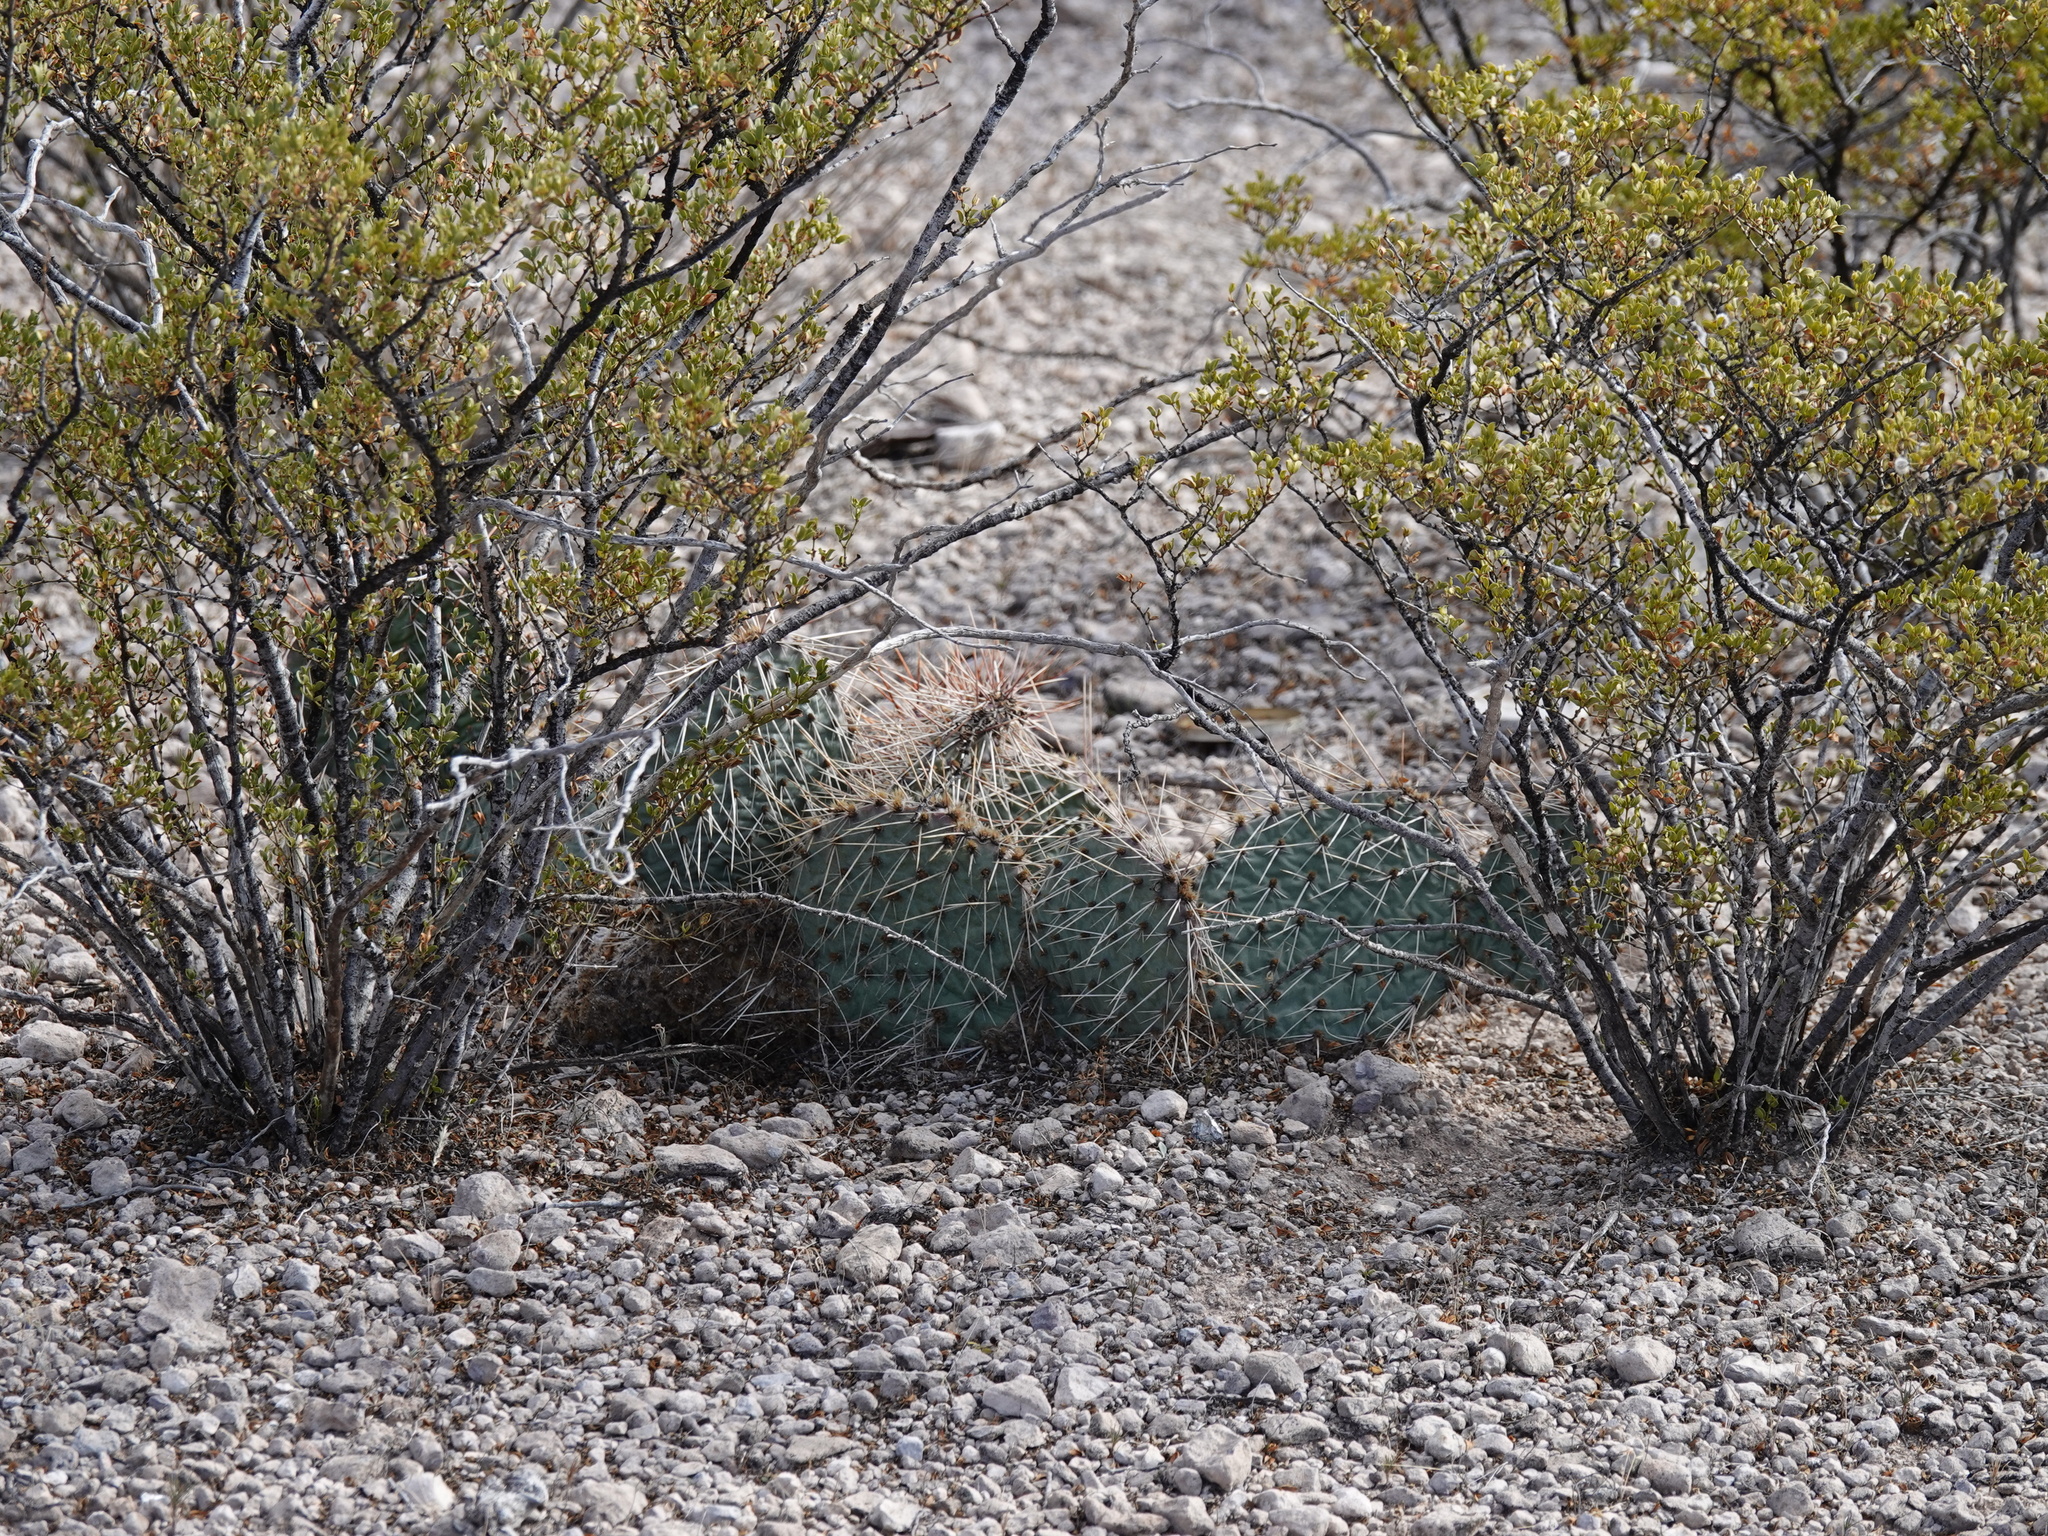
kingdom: Plantae
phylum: Tracheophyta
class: Magnoliopsida
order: Caryophyllales
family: Cactaceae
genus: Opuntia
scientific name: Opuntia macrorhiza
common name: Grassland pricklypear
